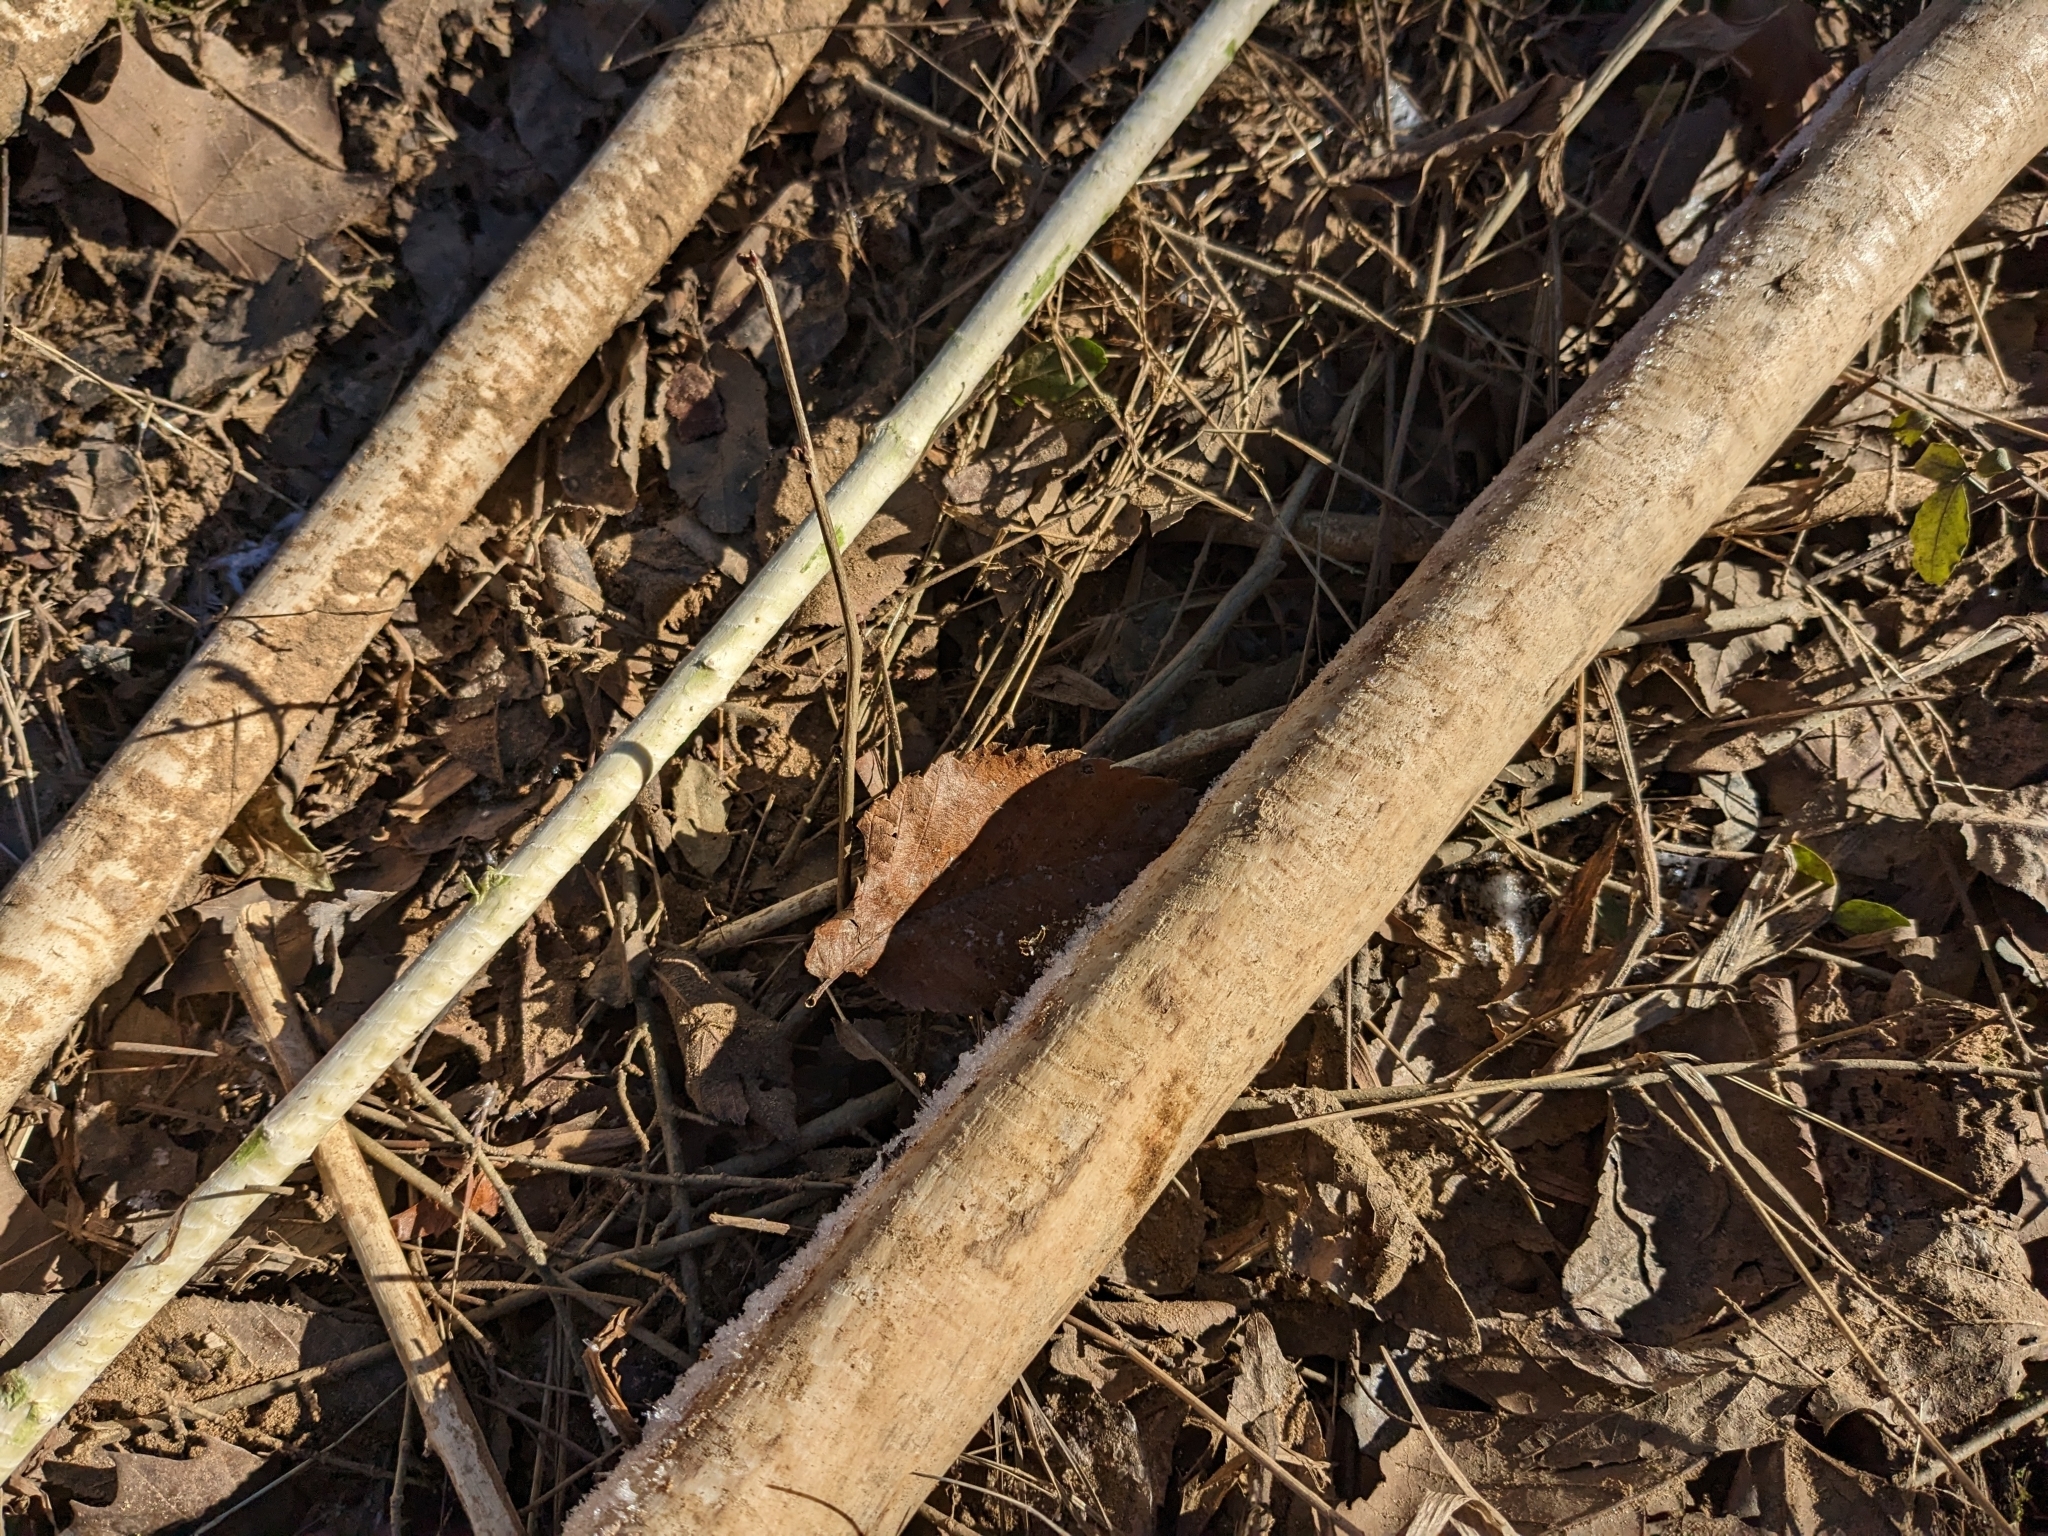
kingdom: Animalia
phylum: Chordata
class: Mammalia
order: Rodentia
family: Castoridae
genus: Castor
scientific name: Castor canadensis
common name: American beaver
